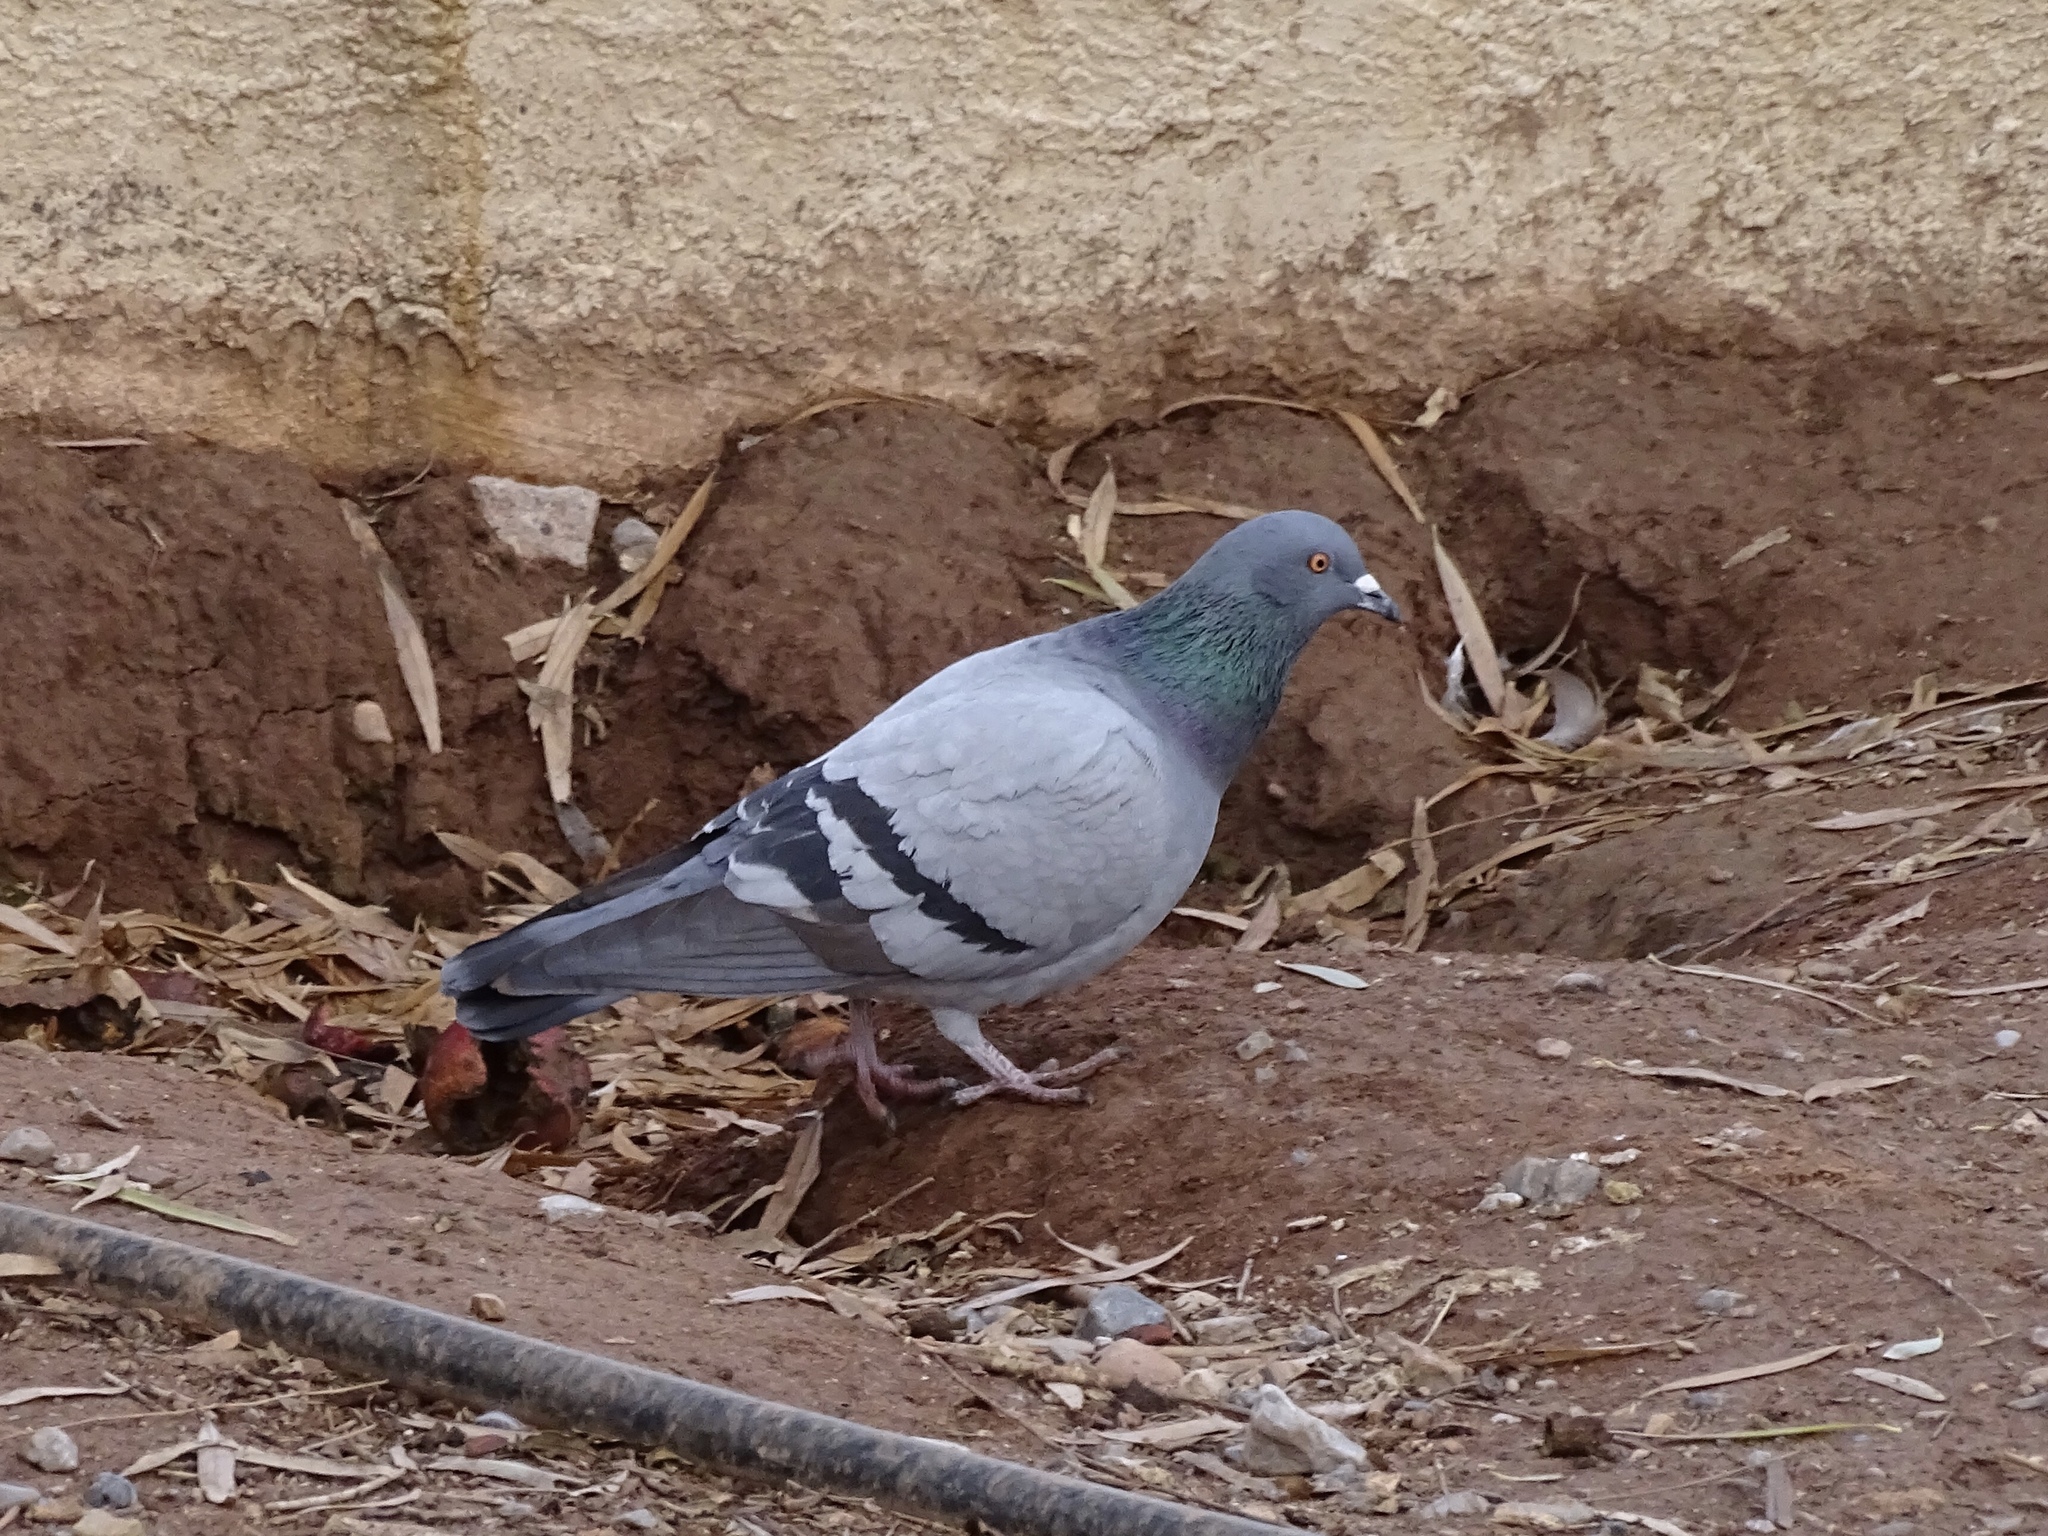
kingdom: Animalia
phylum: Chordata
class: Aves
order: Columbiformes
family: Columbidae
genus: Columba
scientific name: Columba livia
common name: Rock pigeon
